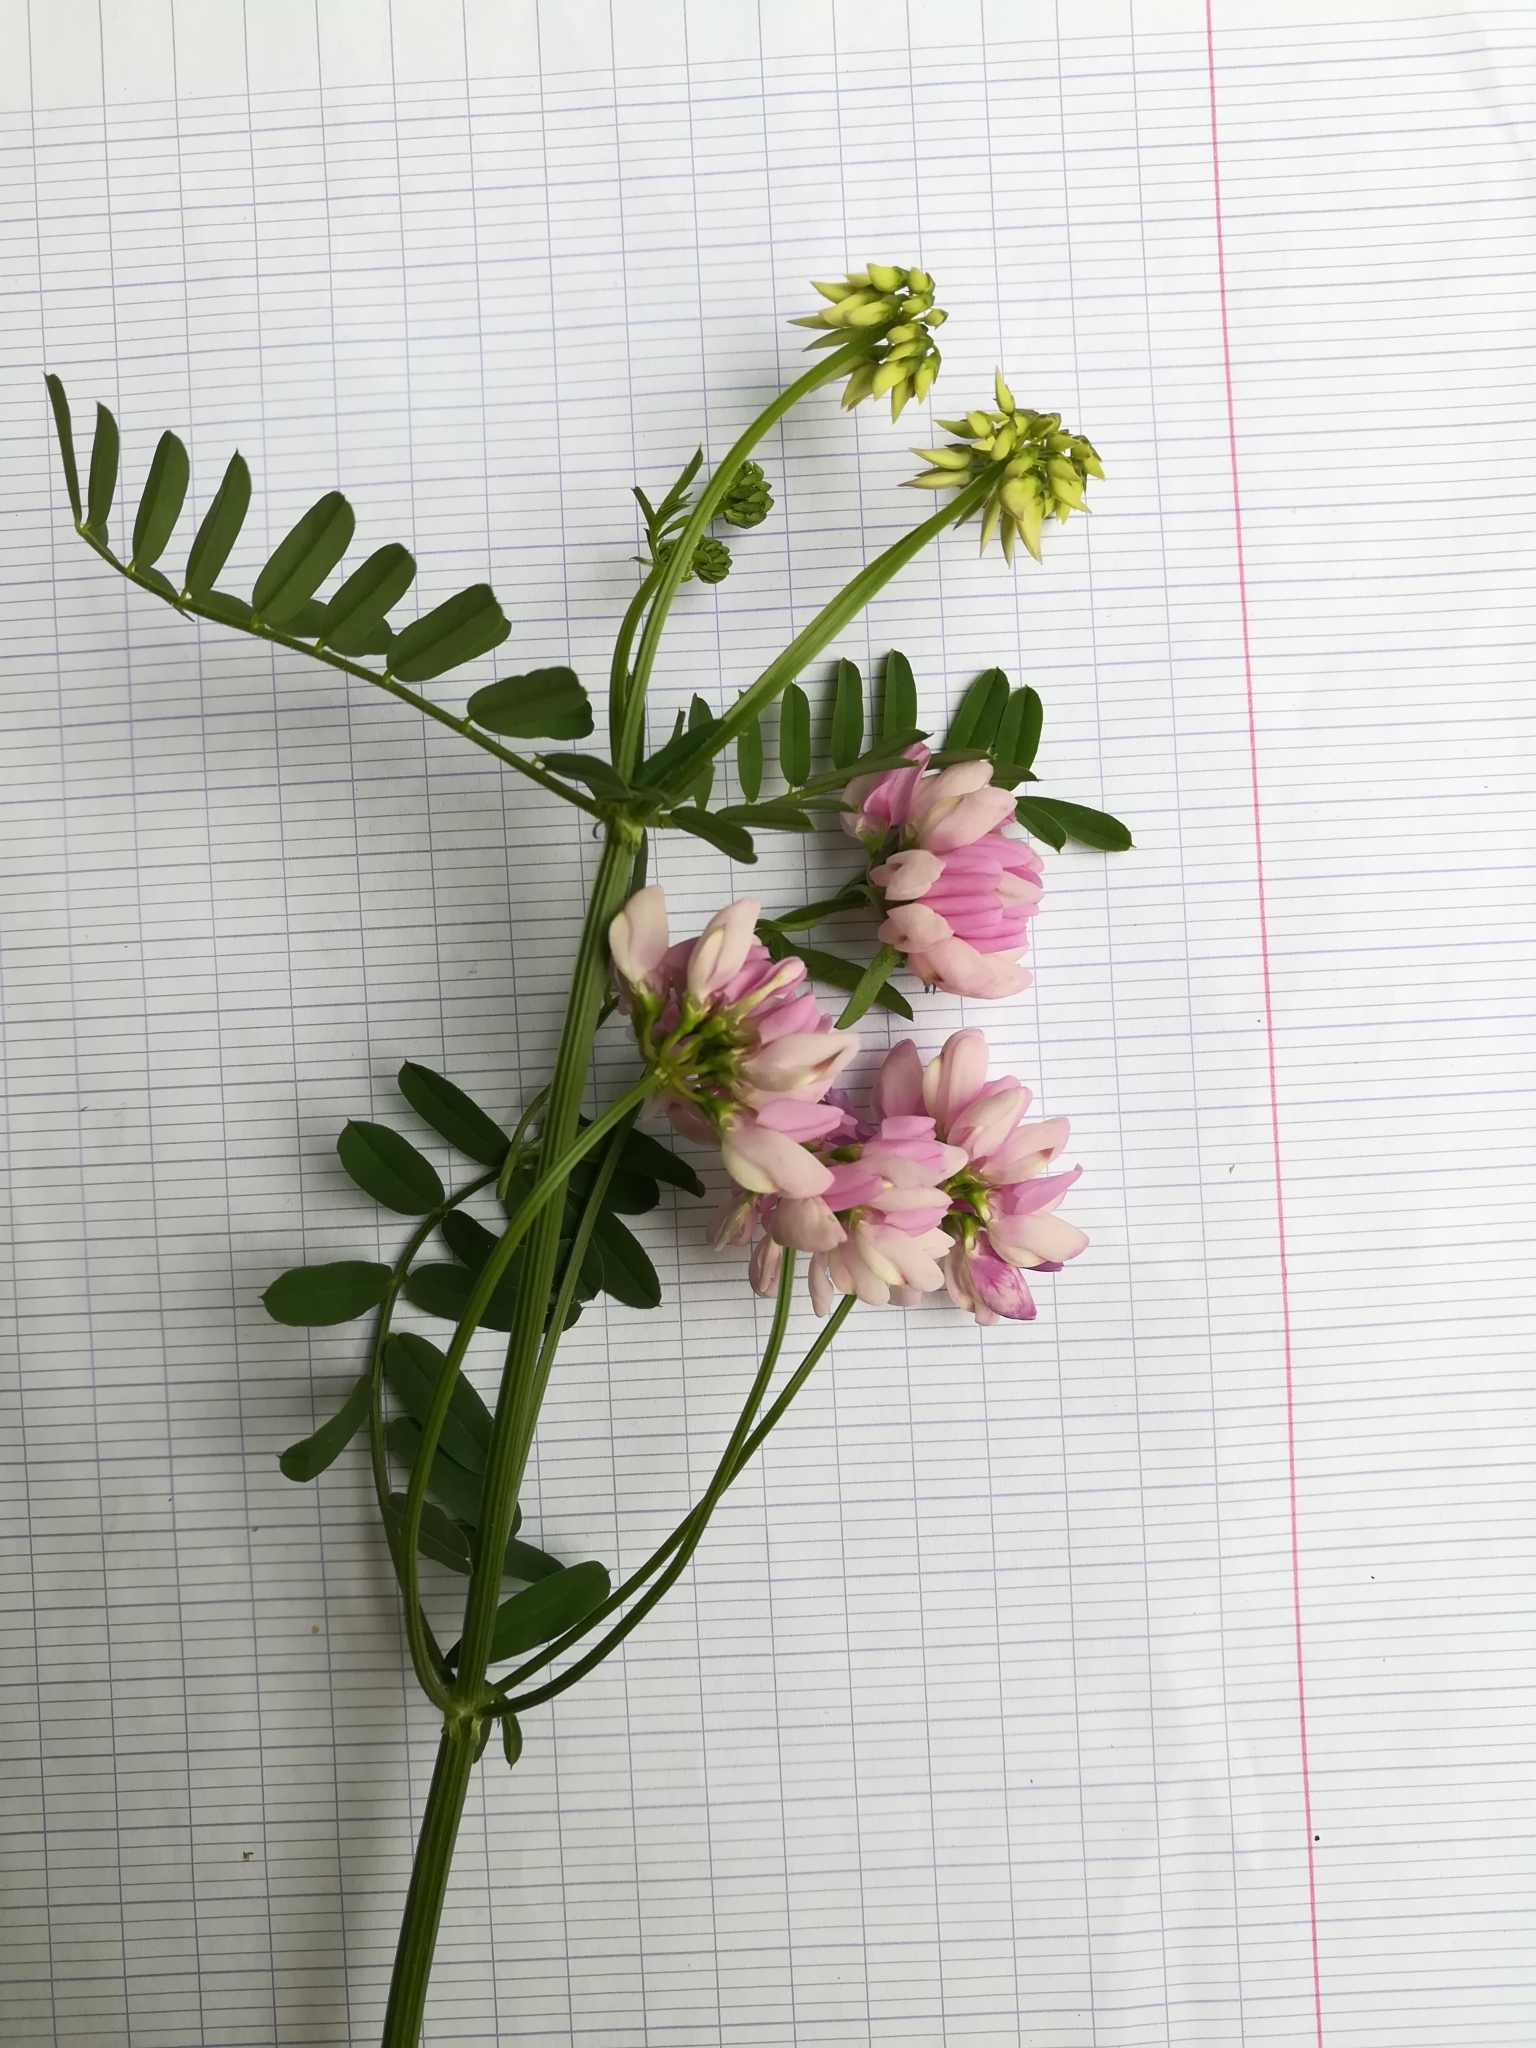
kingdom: Plantae
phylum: Tracheophyta
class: Magnoliopsida
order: Fabales
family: Fabaceae
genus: Coronilla
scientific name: Coronilla varia
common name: Crownvetch
